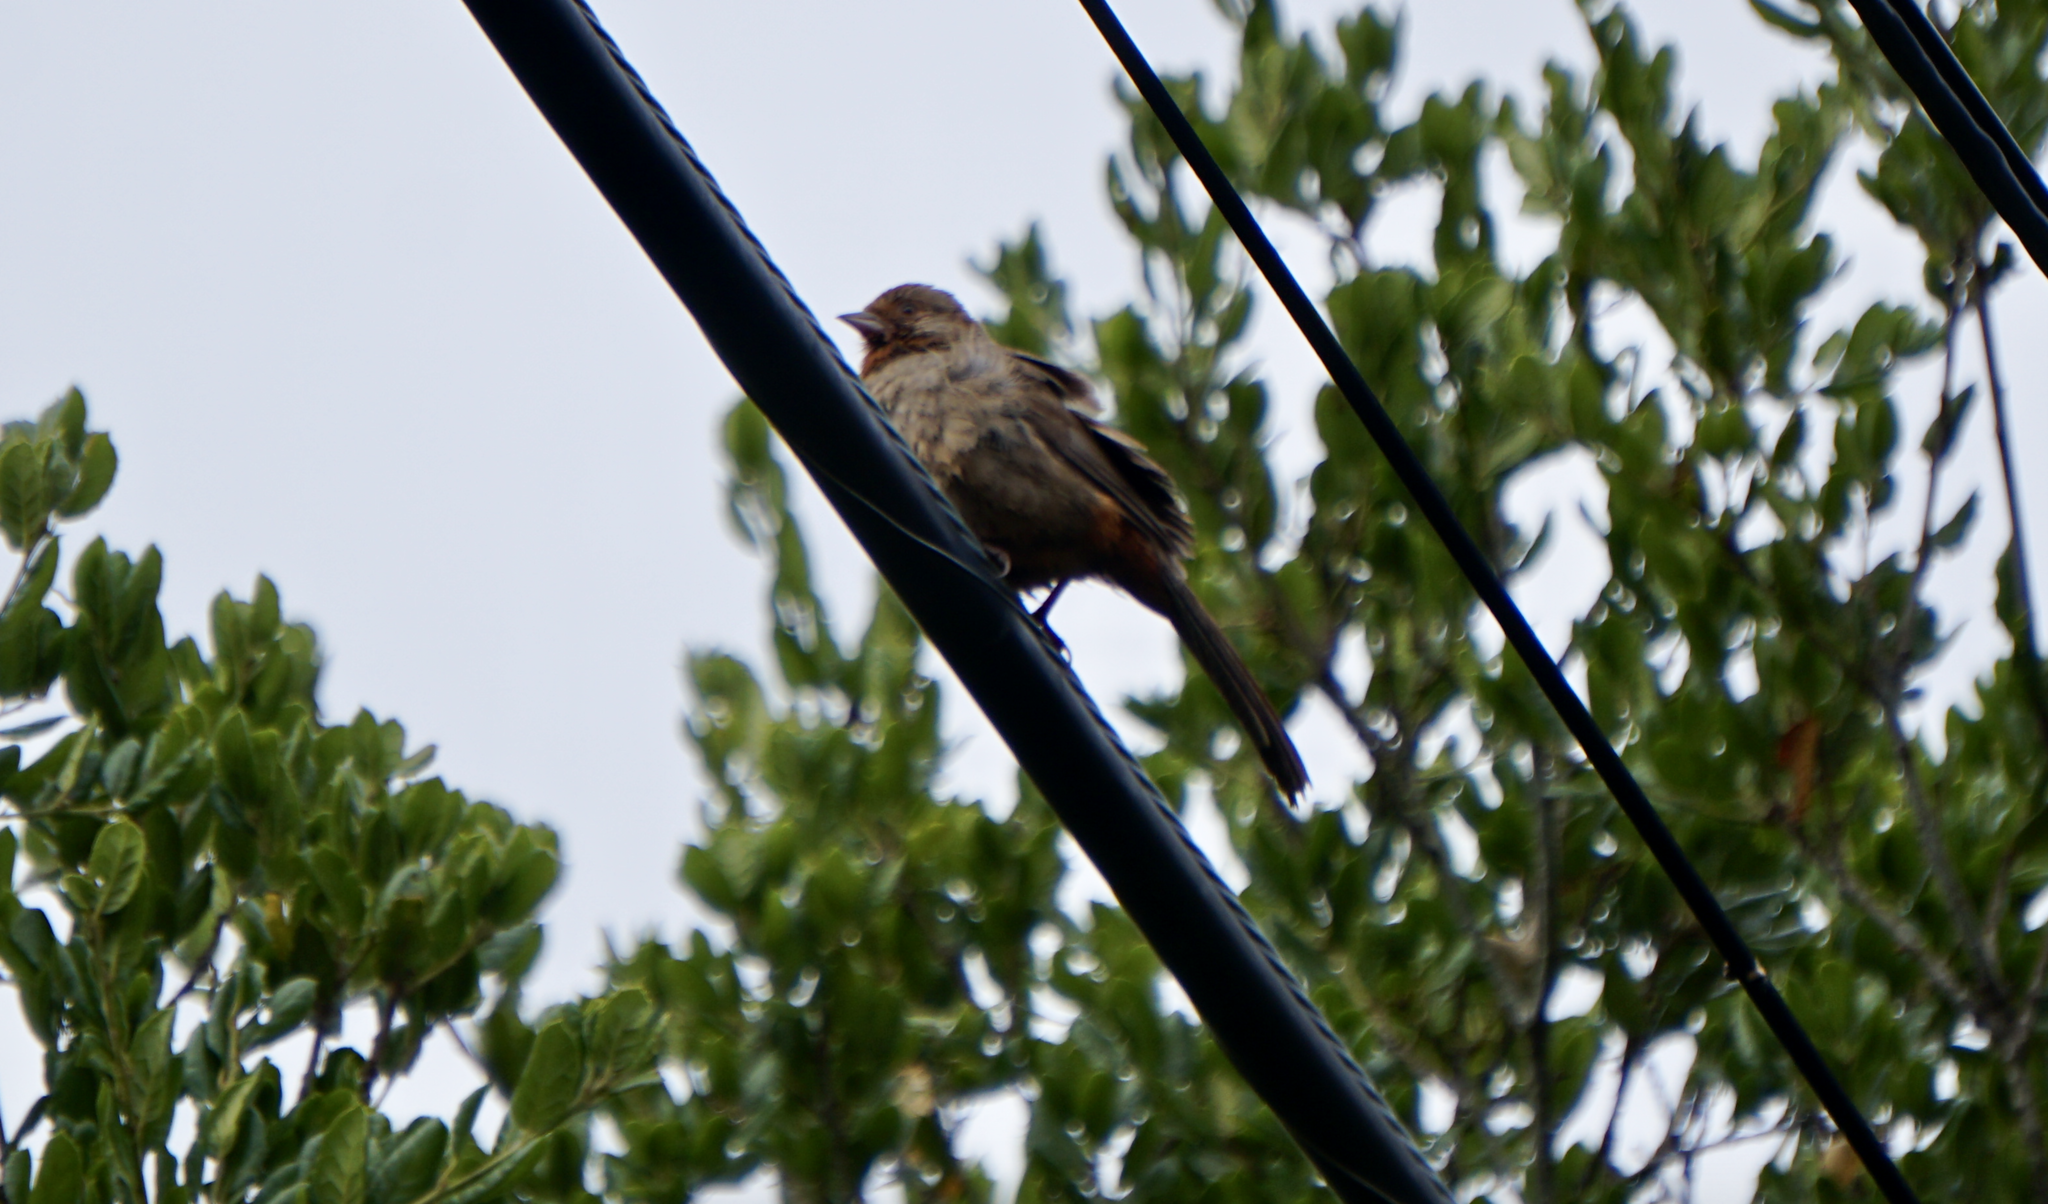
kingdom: Animalia
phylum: Chordata
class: Aves
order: Passeriformes
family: Passerellidae
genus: Melozone
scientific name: Melozone crissalis
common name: California towhee
